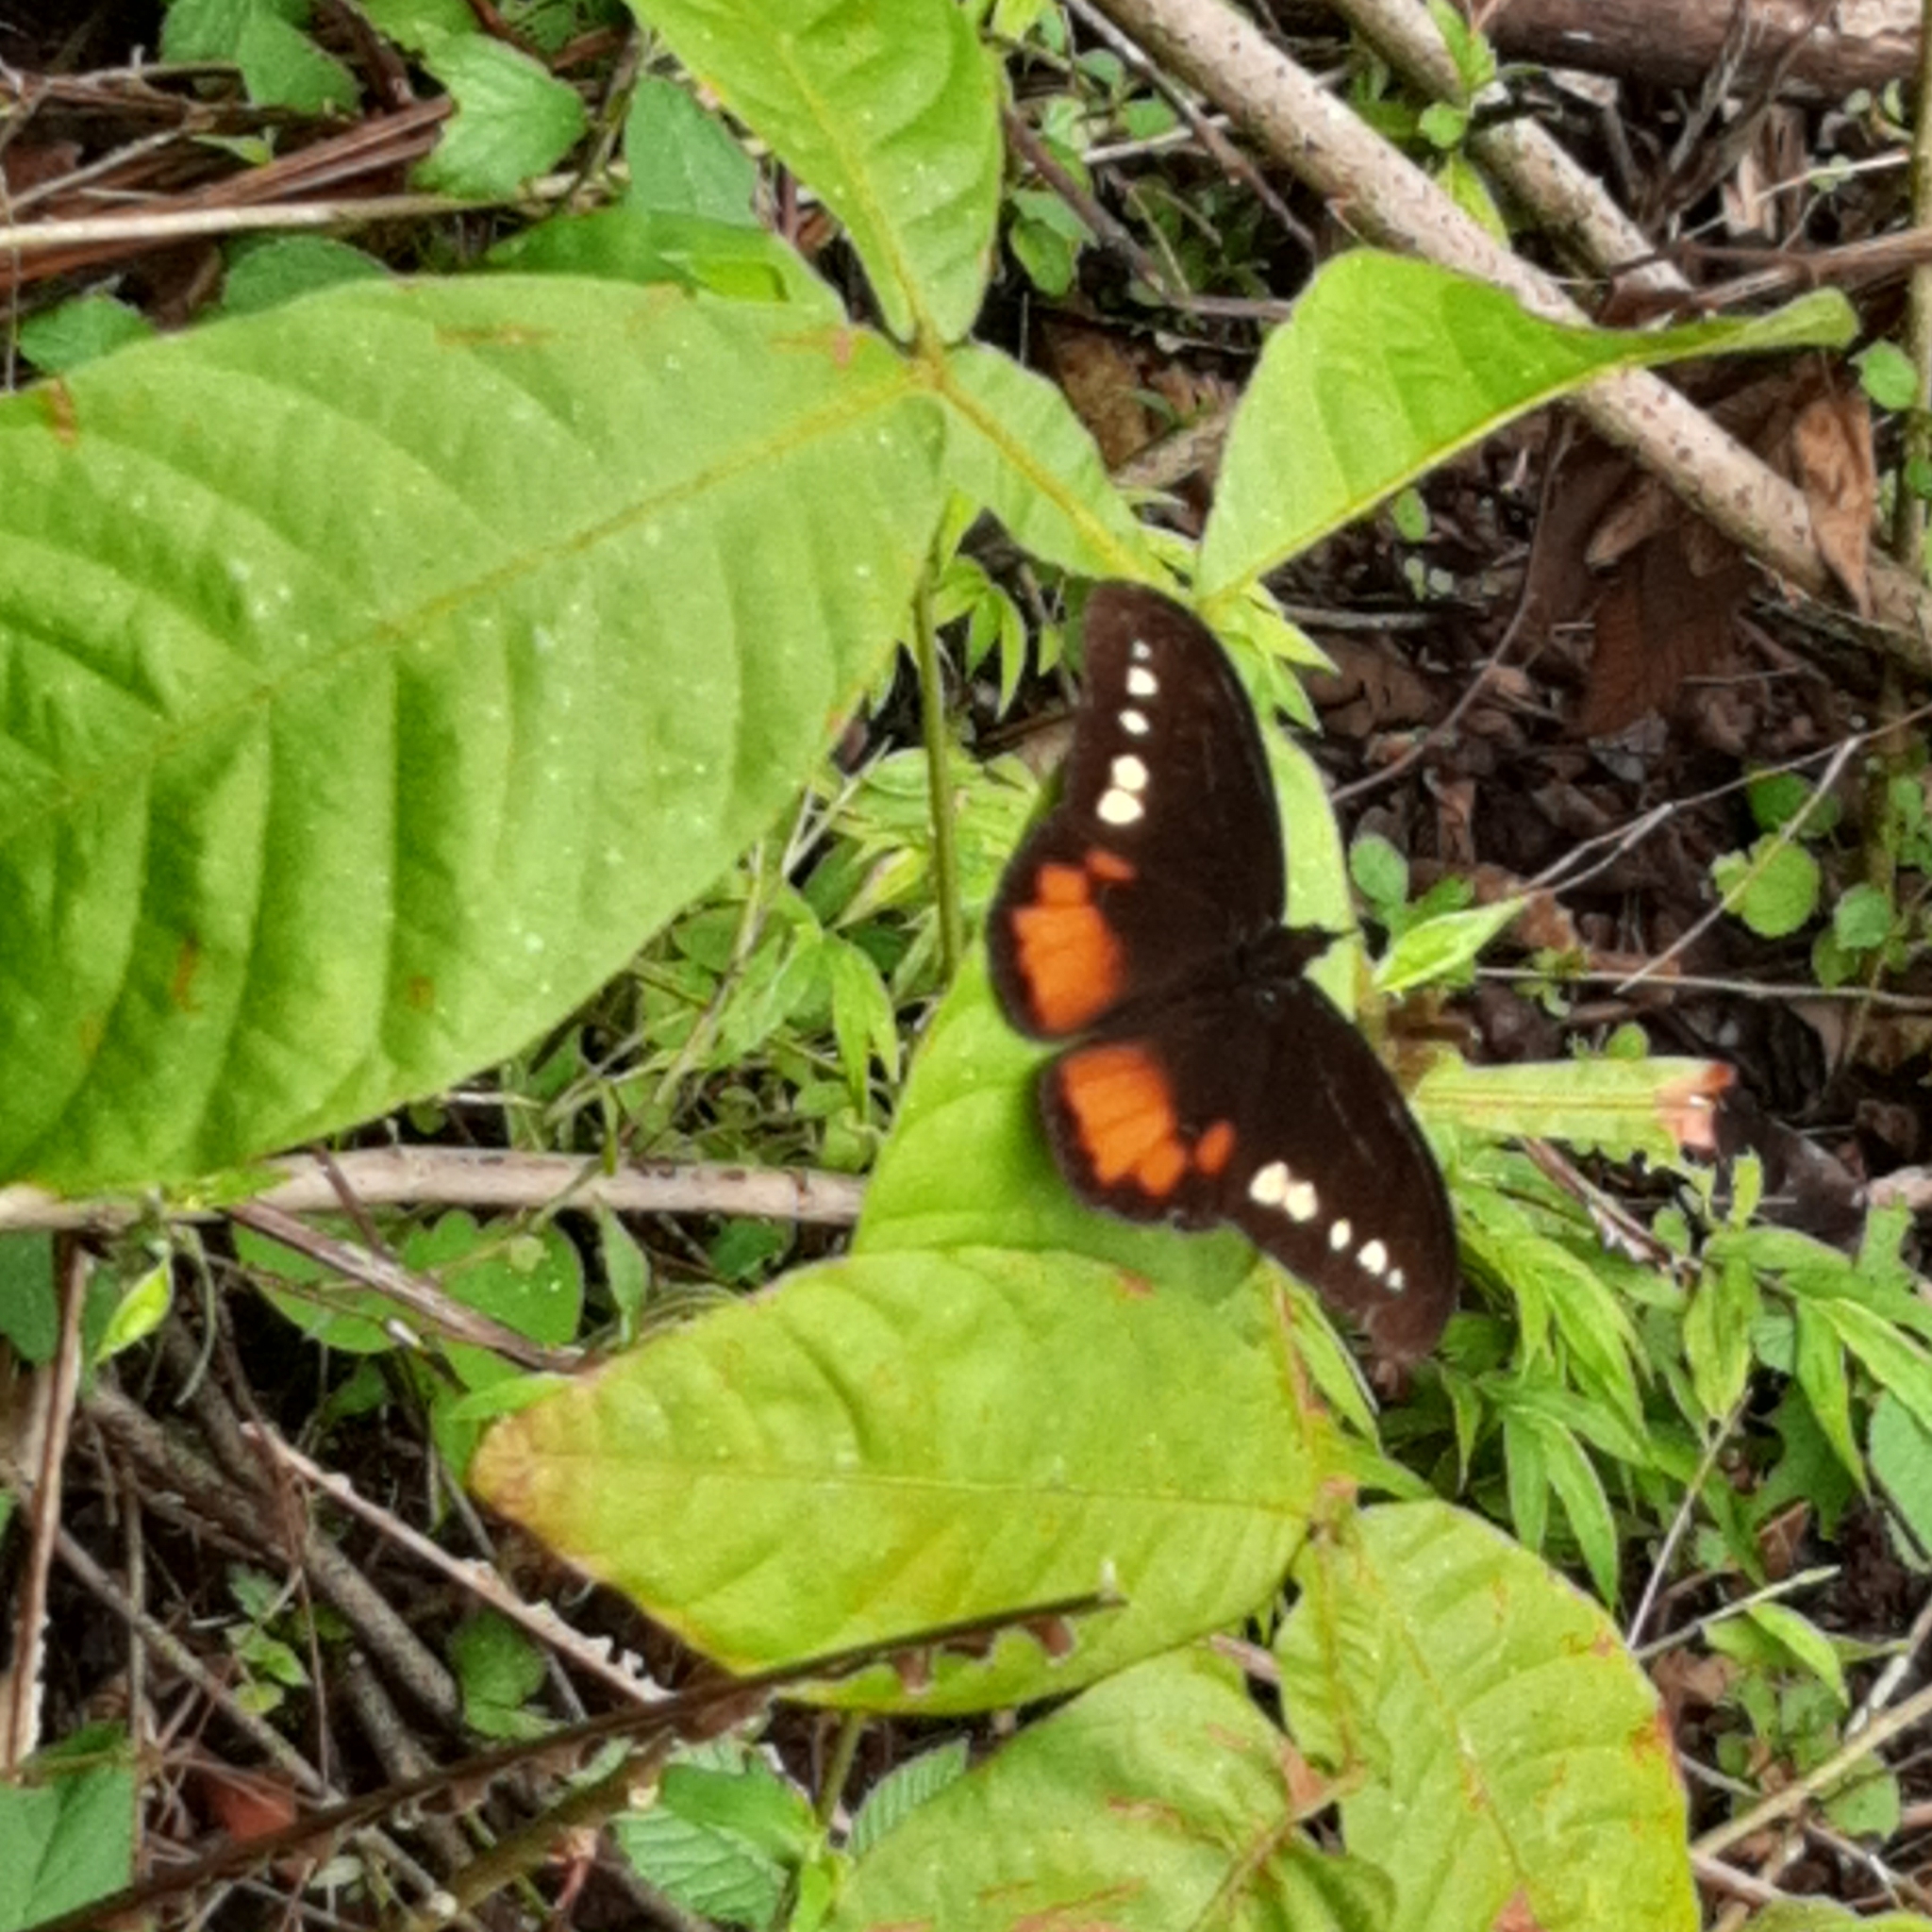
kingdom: Animalia
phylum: Arthropoda
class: Insecta
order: Lepidoptera
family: Nymphalidae
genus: Drucina
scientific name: Drucina leonata
